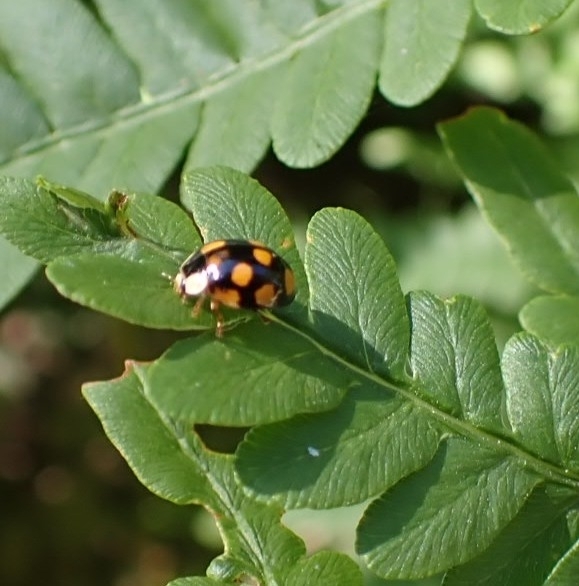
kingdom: Animalia
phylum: Arthropoda
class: Insecta
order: Coleoptera
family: Coccinellidae
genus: Harmonia
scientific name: Harmonia axyridis
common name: Harlequin ladybird
